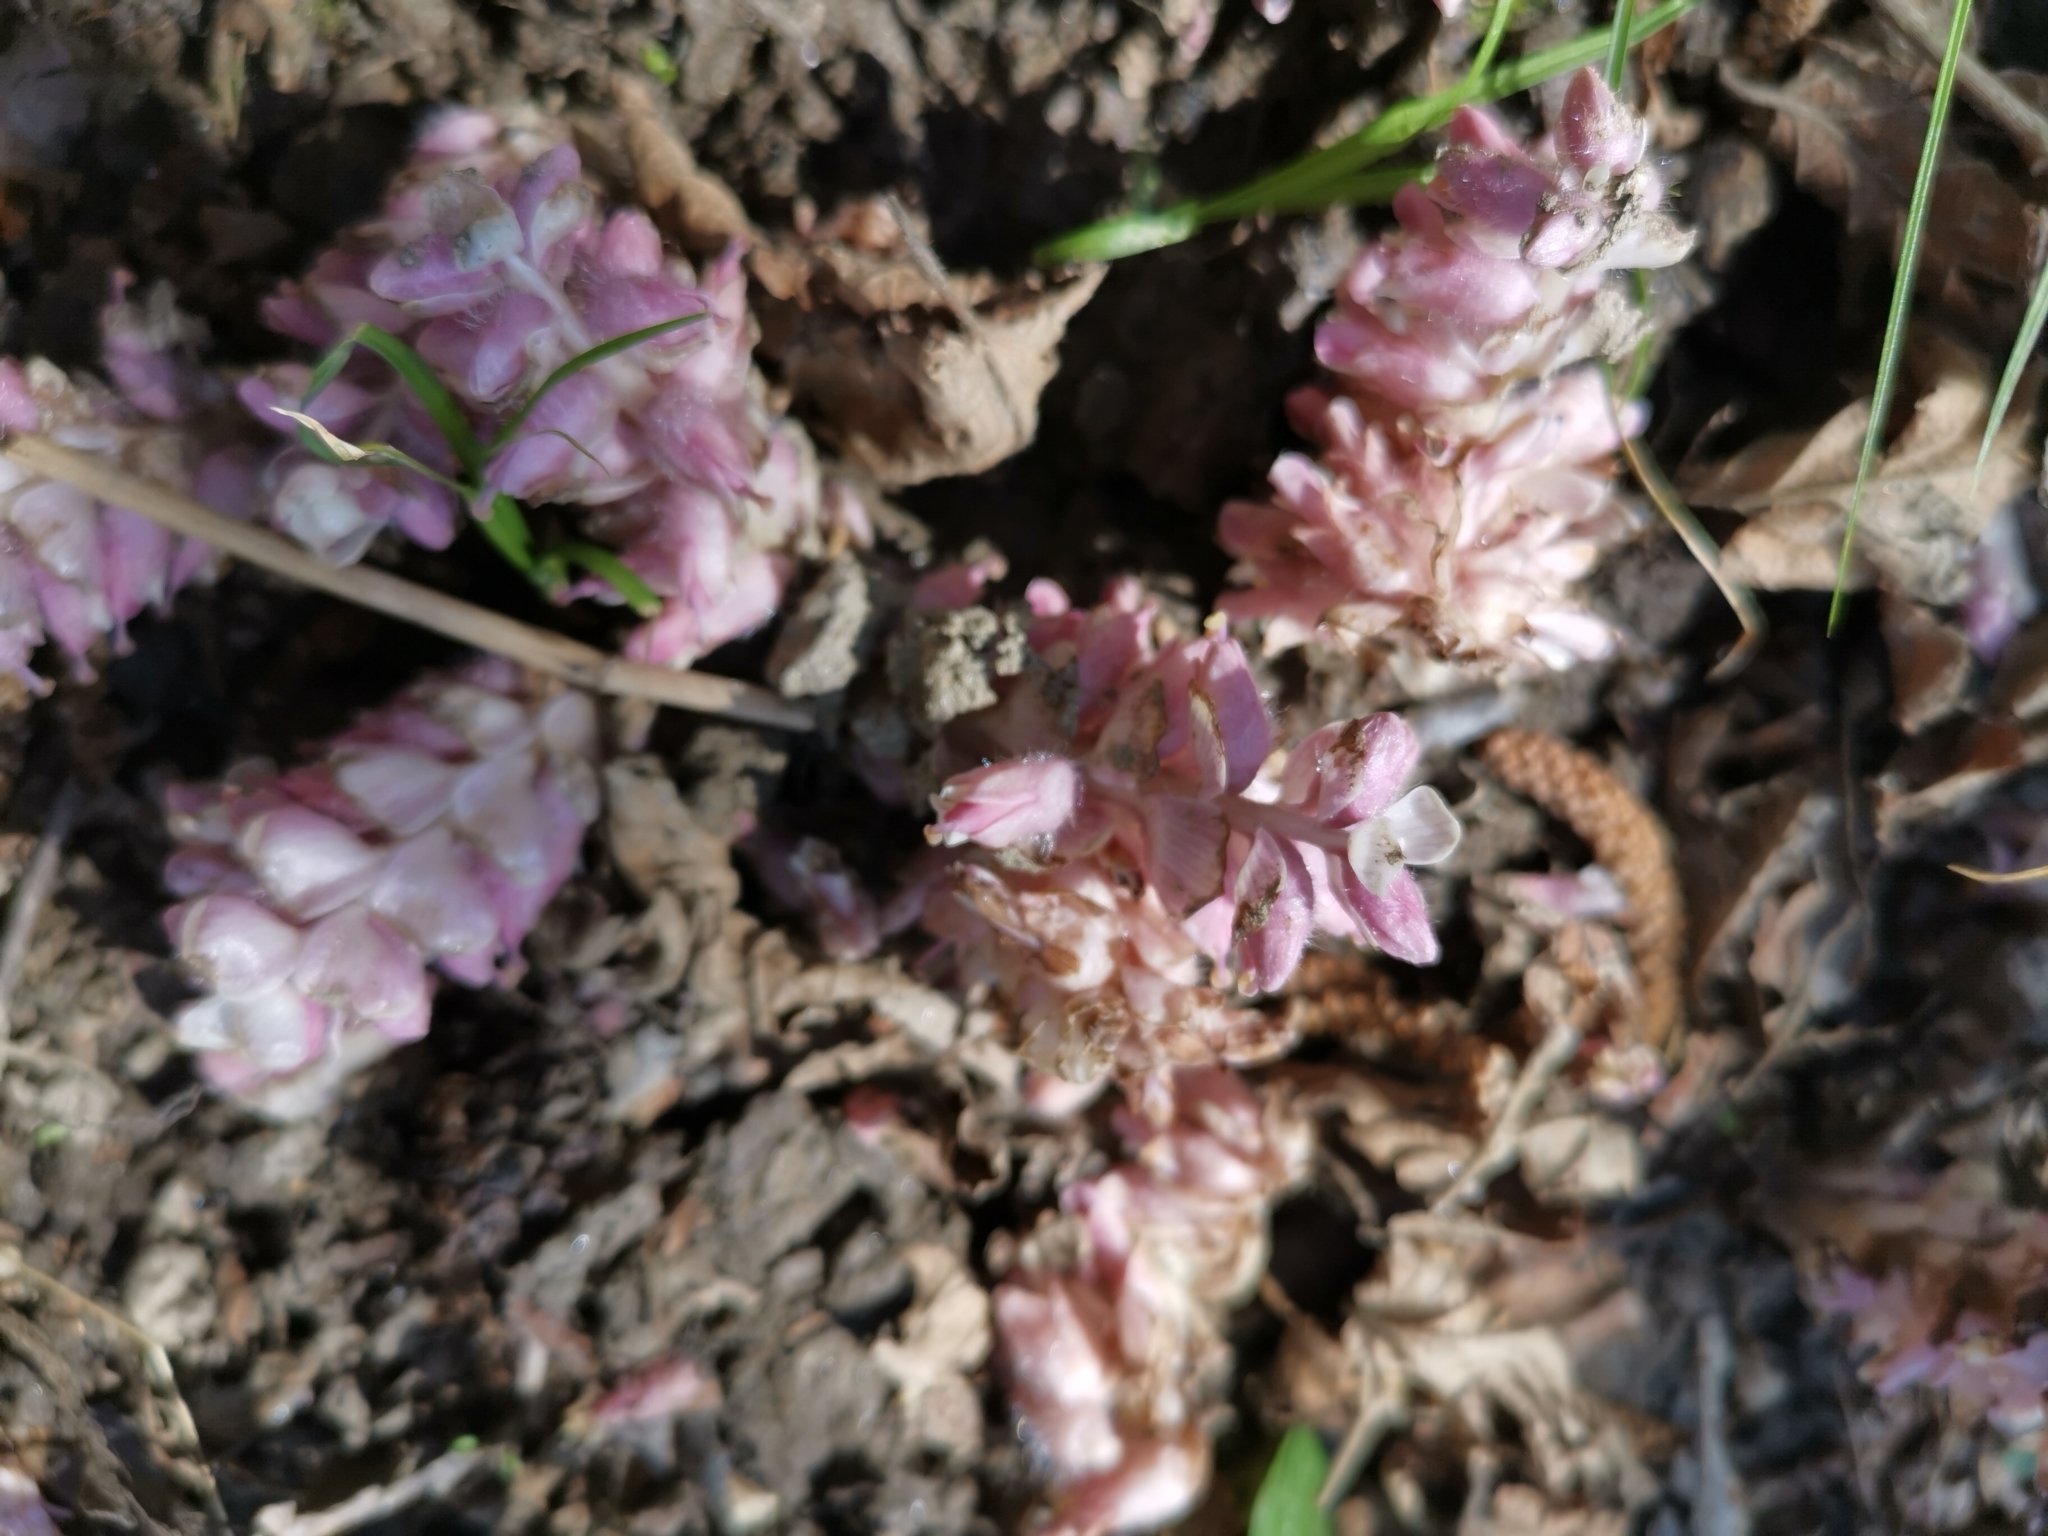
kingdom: Plantae
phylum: Tracheophyta
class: Magnoliopsida
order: Lamiales
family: Orobanchaceae
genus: Lathraea
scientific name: Lathraea squamaria
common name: Toothwort
